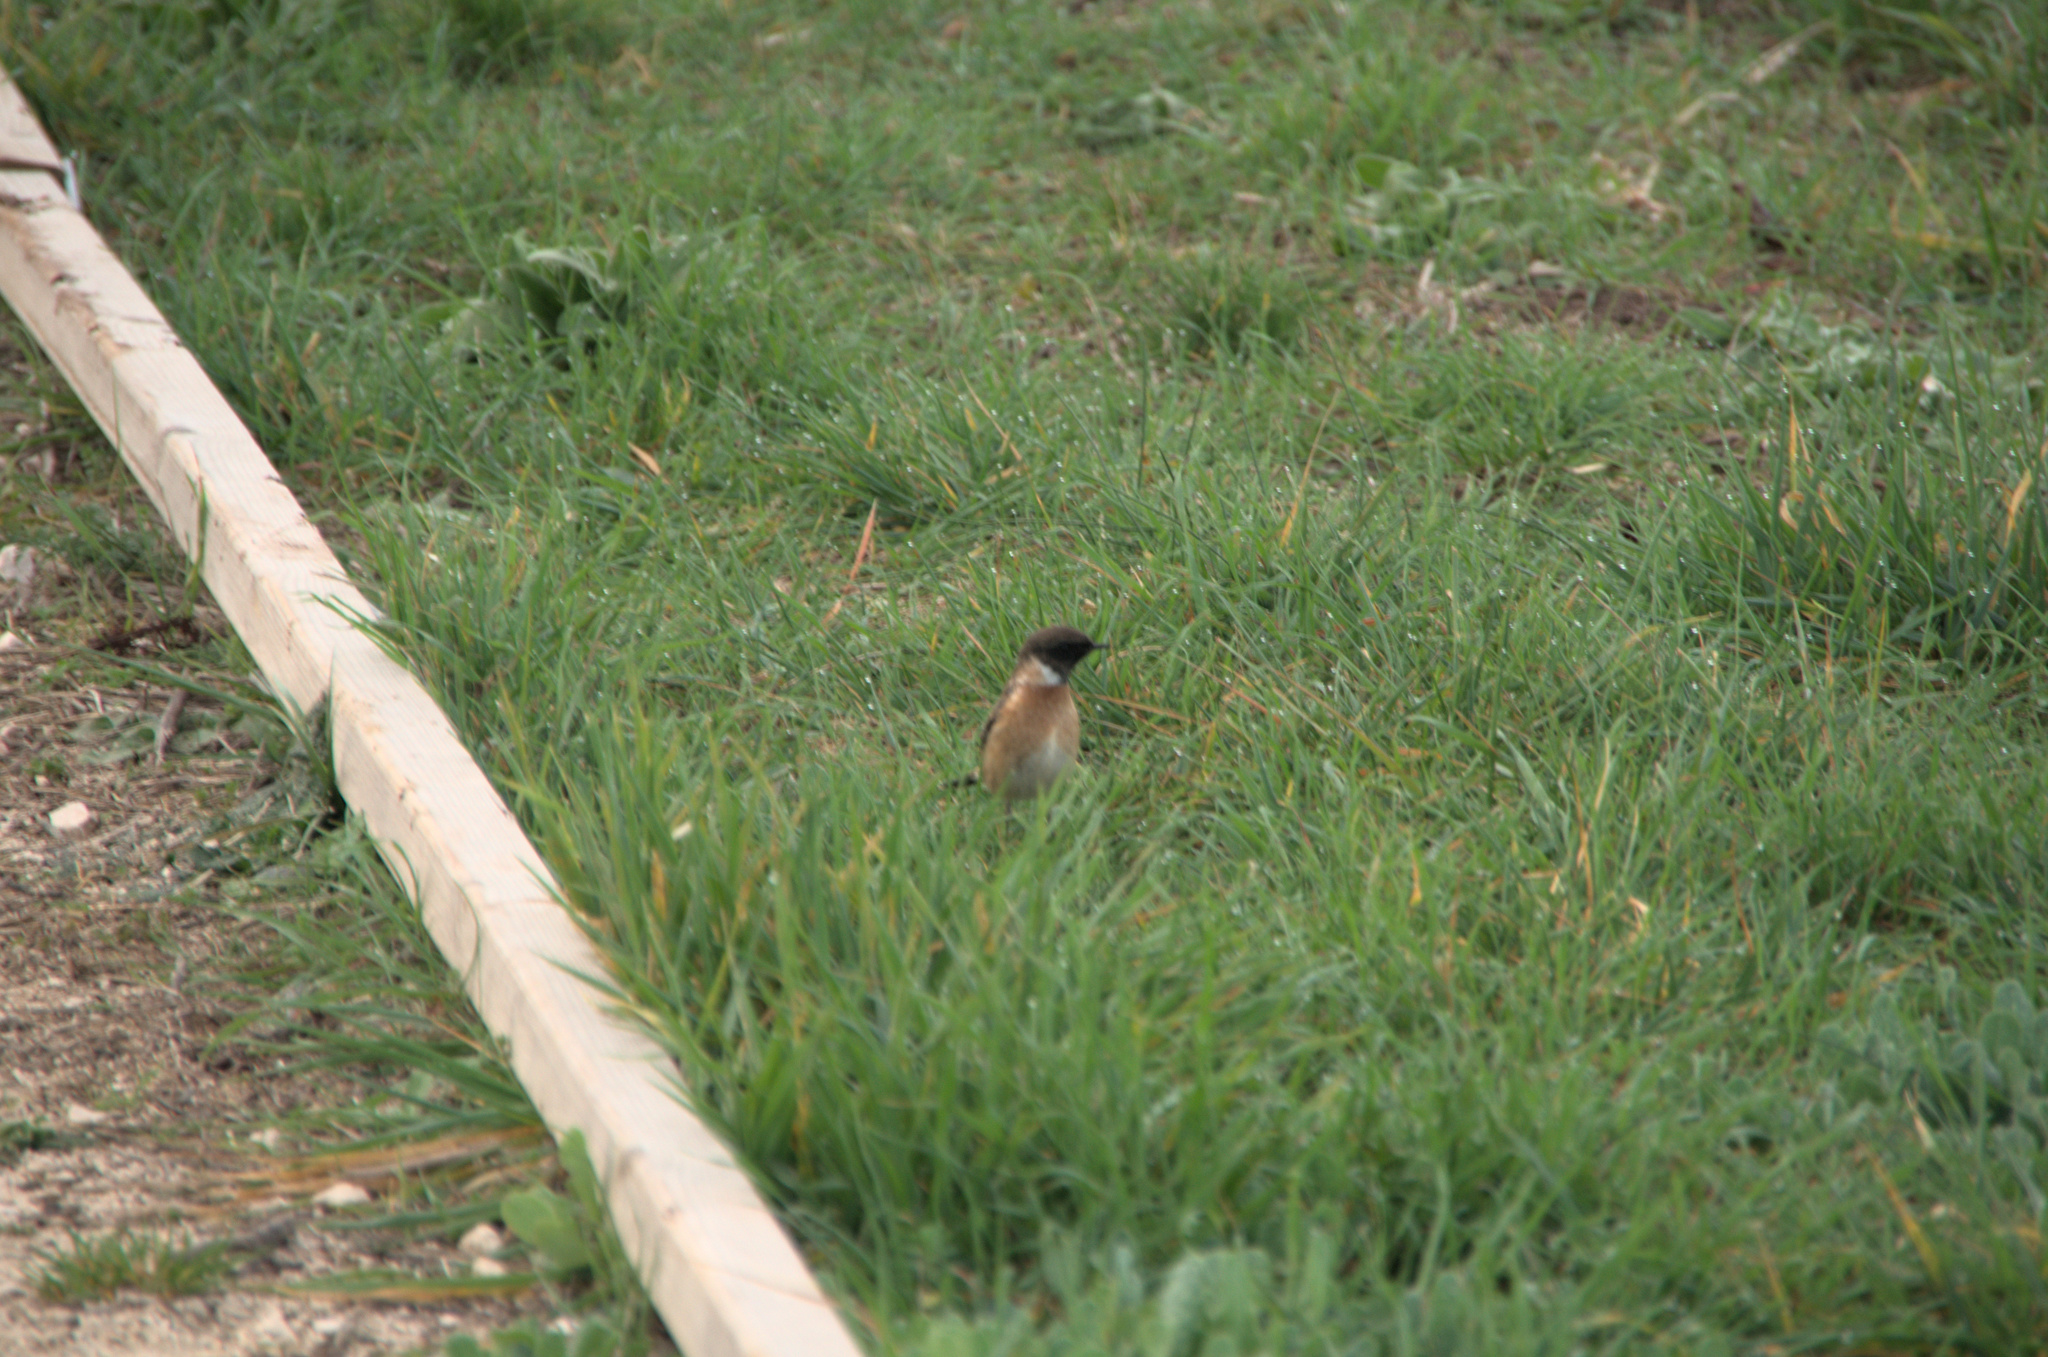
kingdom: Animalia
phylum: Chordata
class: Aves
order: Passeriformes
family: Muscicapidae
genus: Saxicola
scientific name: Saxicola rubicola
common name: European stonechat
